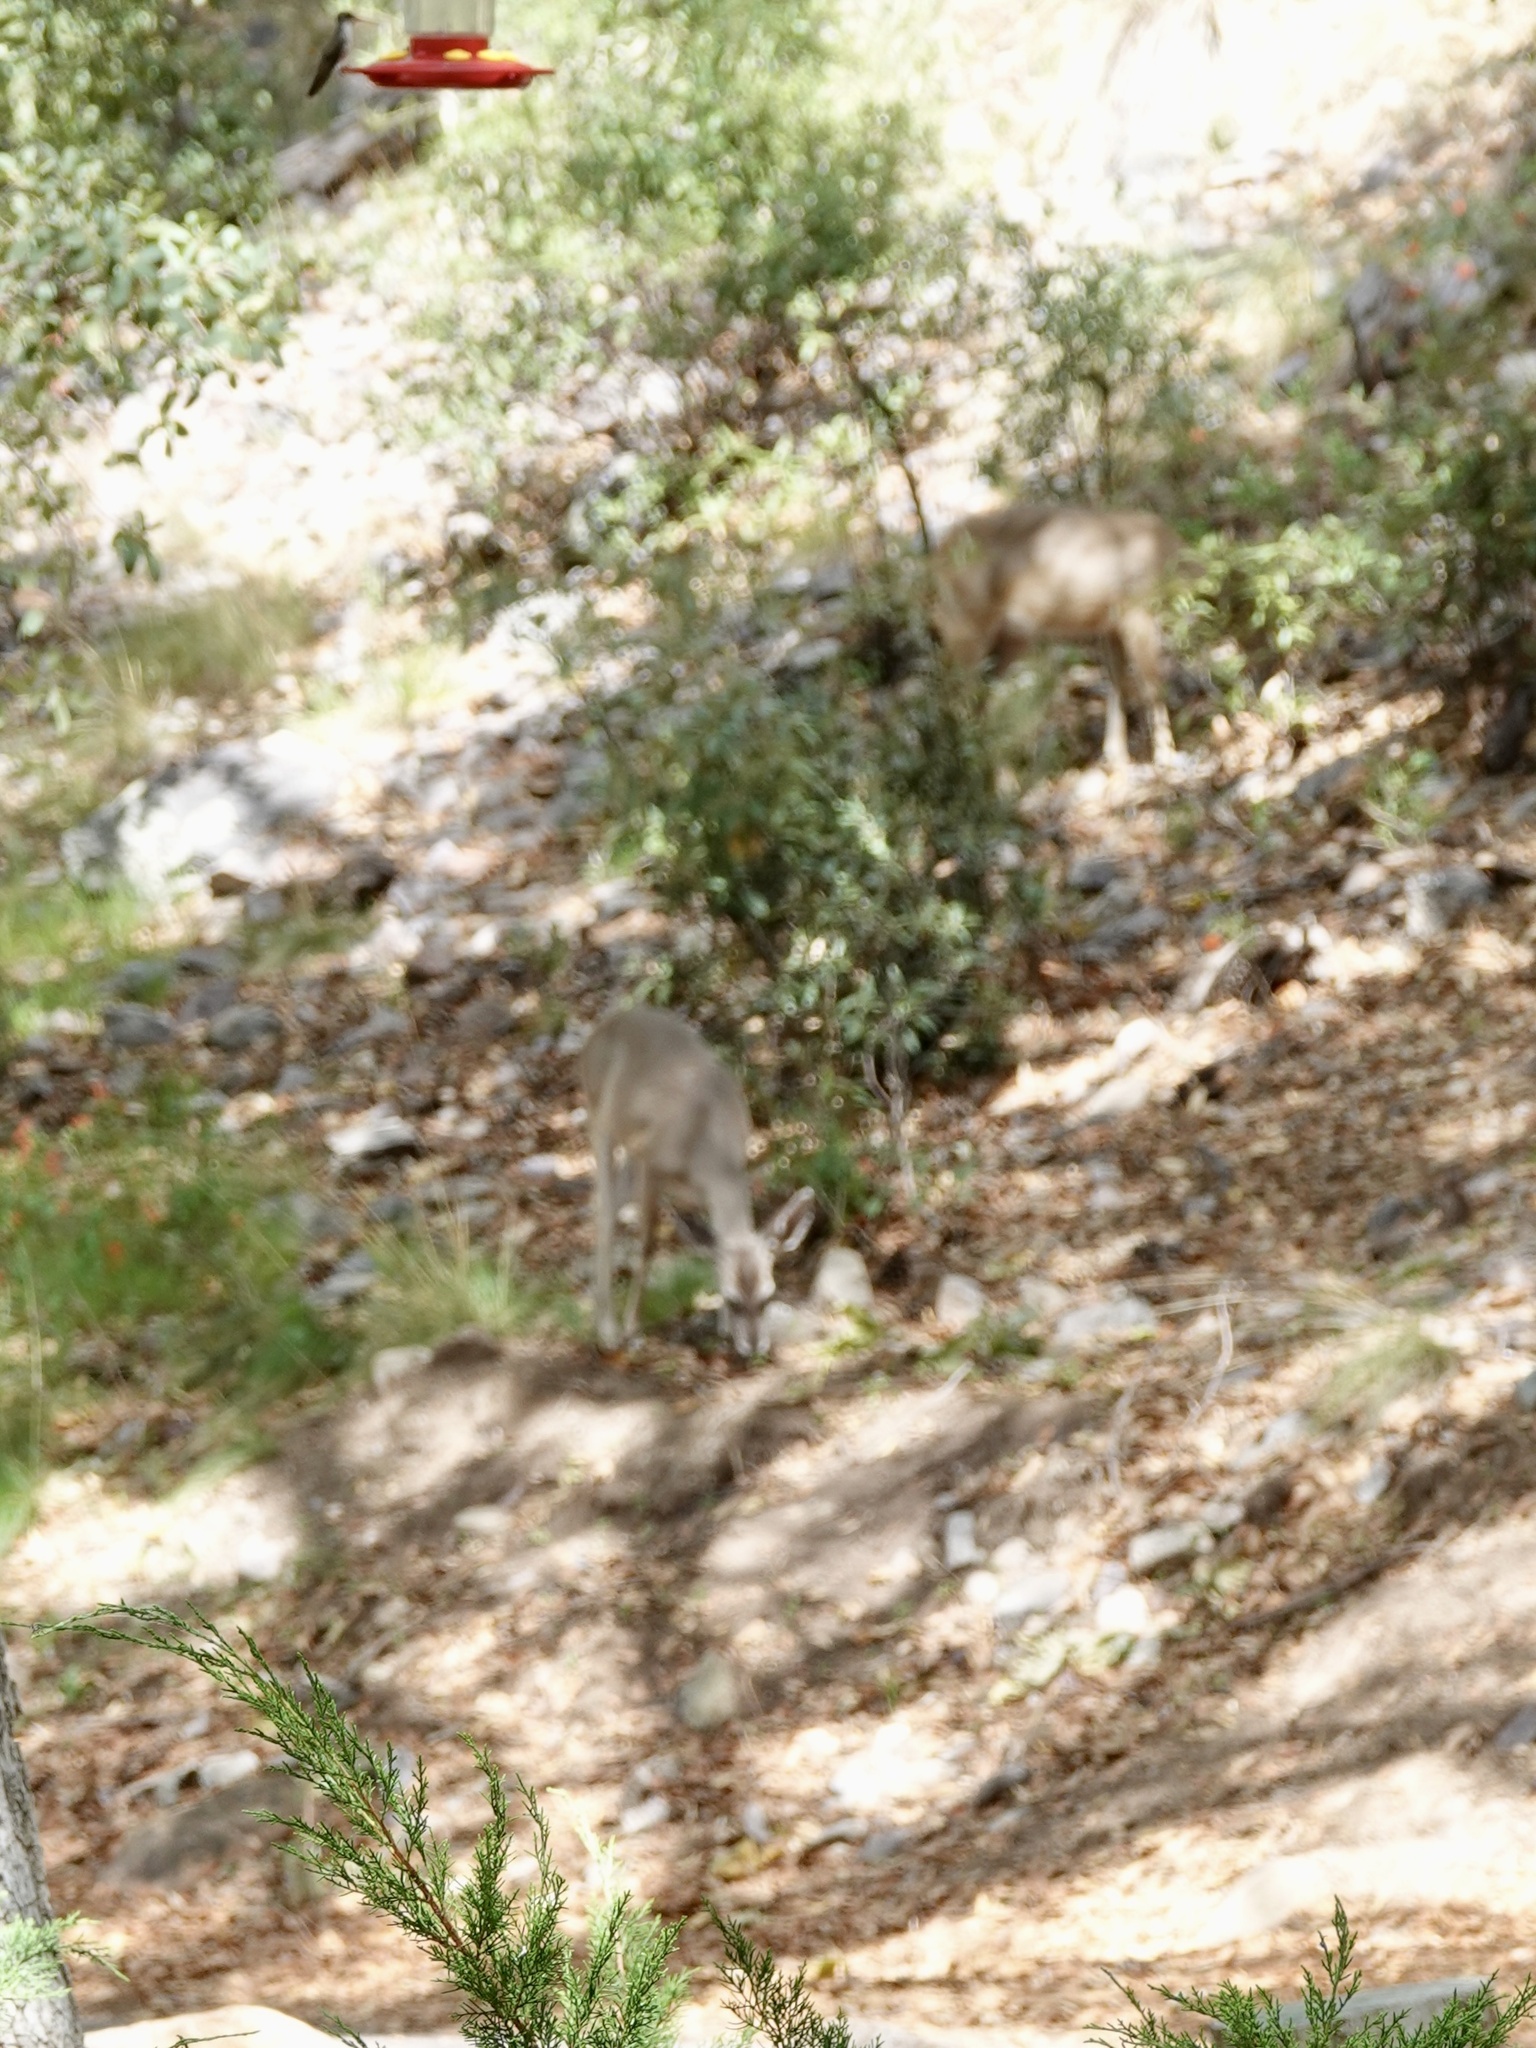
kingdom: Animalia
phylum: Chordata
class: Mammalia
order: Artiodactyla
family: Cervidae
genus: Odocoileus
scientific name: Odocoileus virginianus
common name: White-tailed deer
